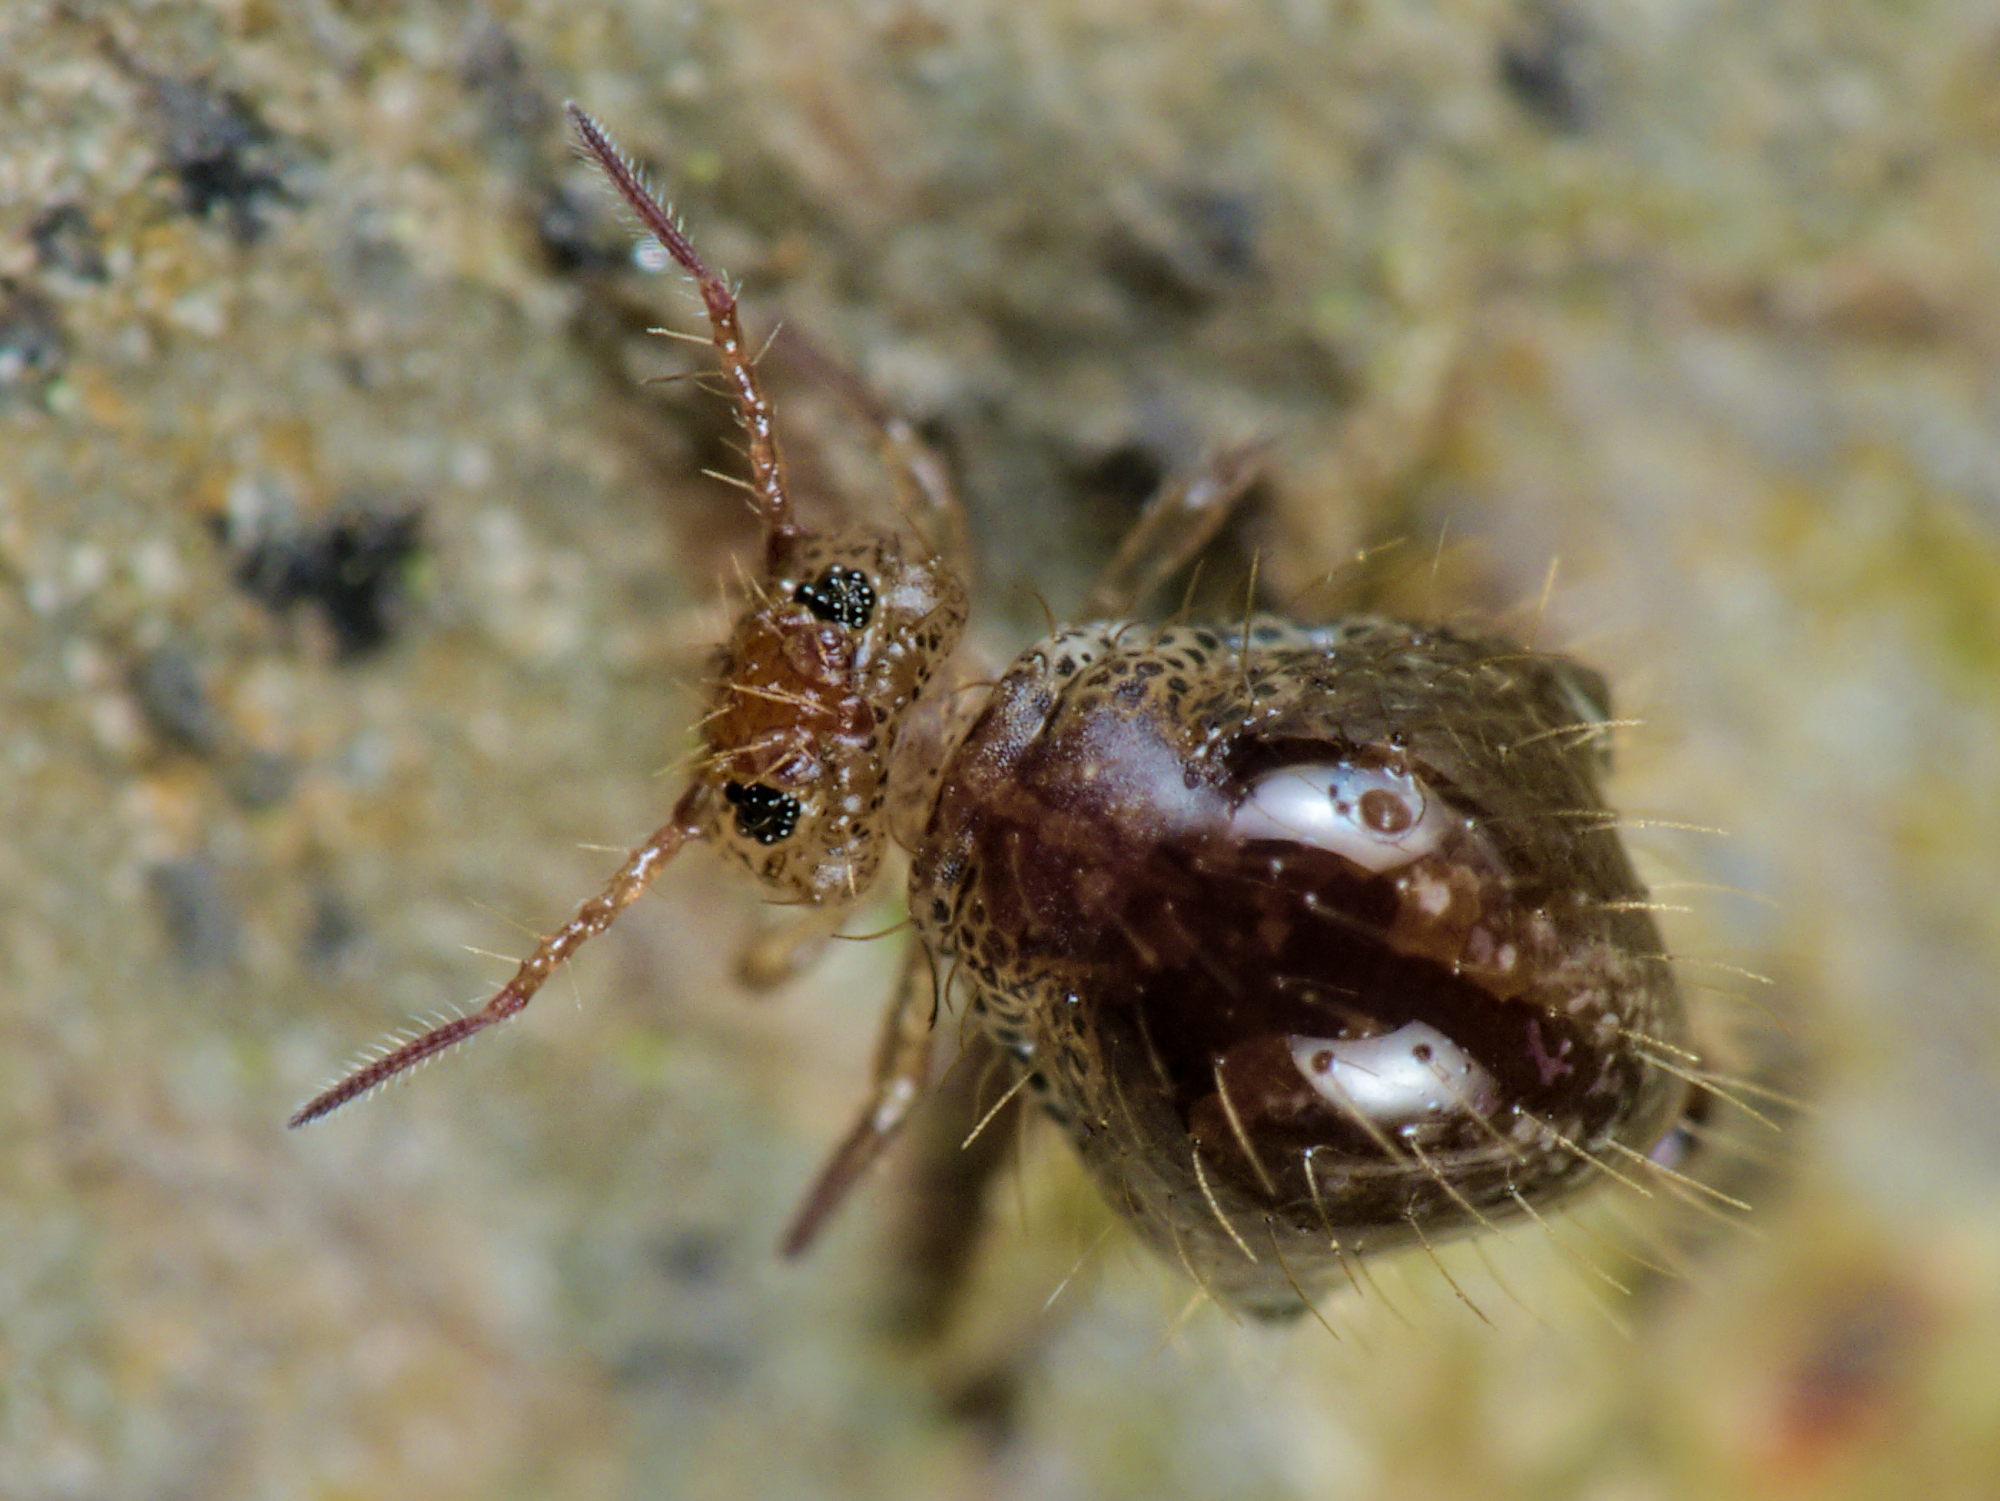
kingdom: Animalia
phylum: Arthropoda
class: Collembola
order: Symphypleona
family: Sminthuridae
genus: Allacma
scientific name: Allacma fusca
